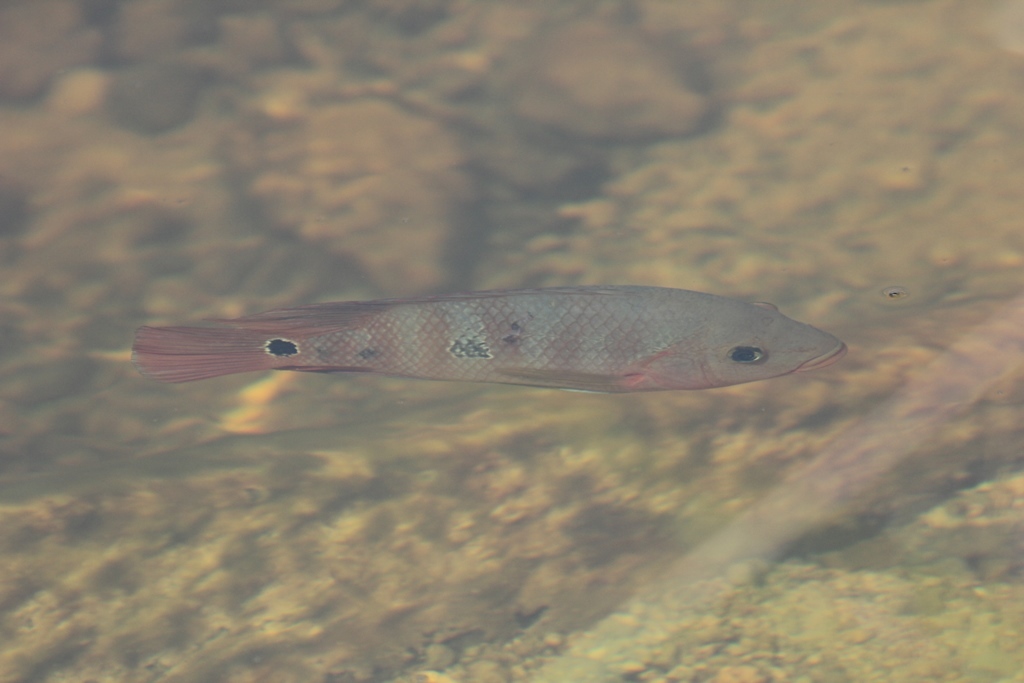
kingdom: Animalia
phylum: Chordata
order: Perciformes
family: Cichlidae
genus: Mayaheros
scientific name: Mayaheros urophthalmus
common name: Mayan cichlid
